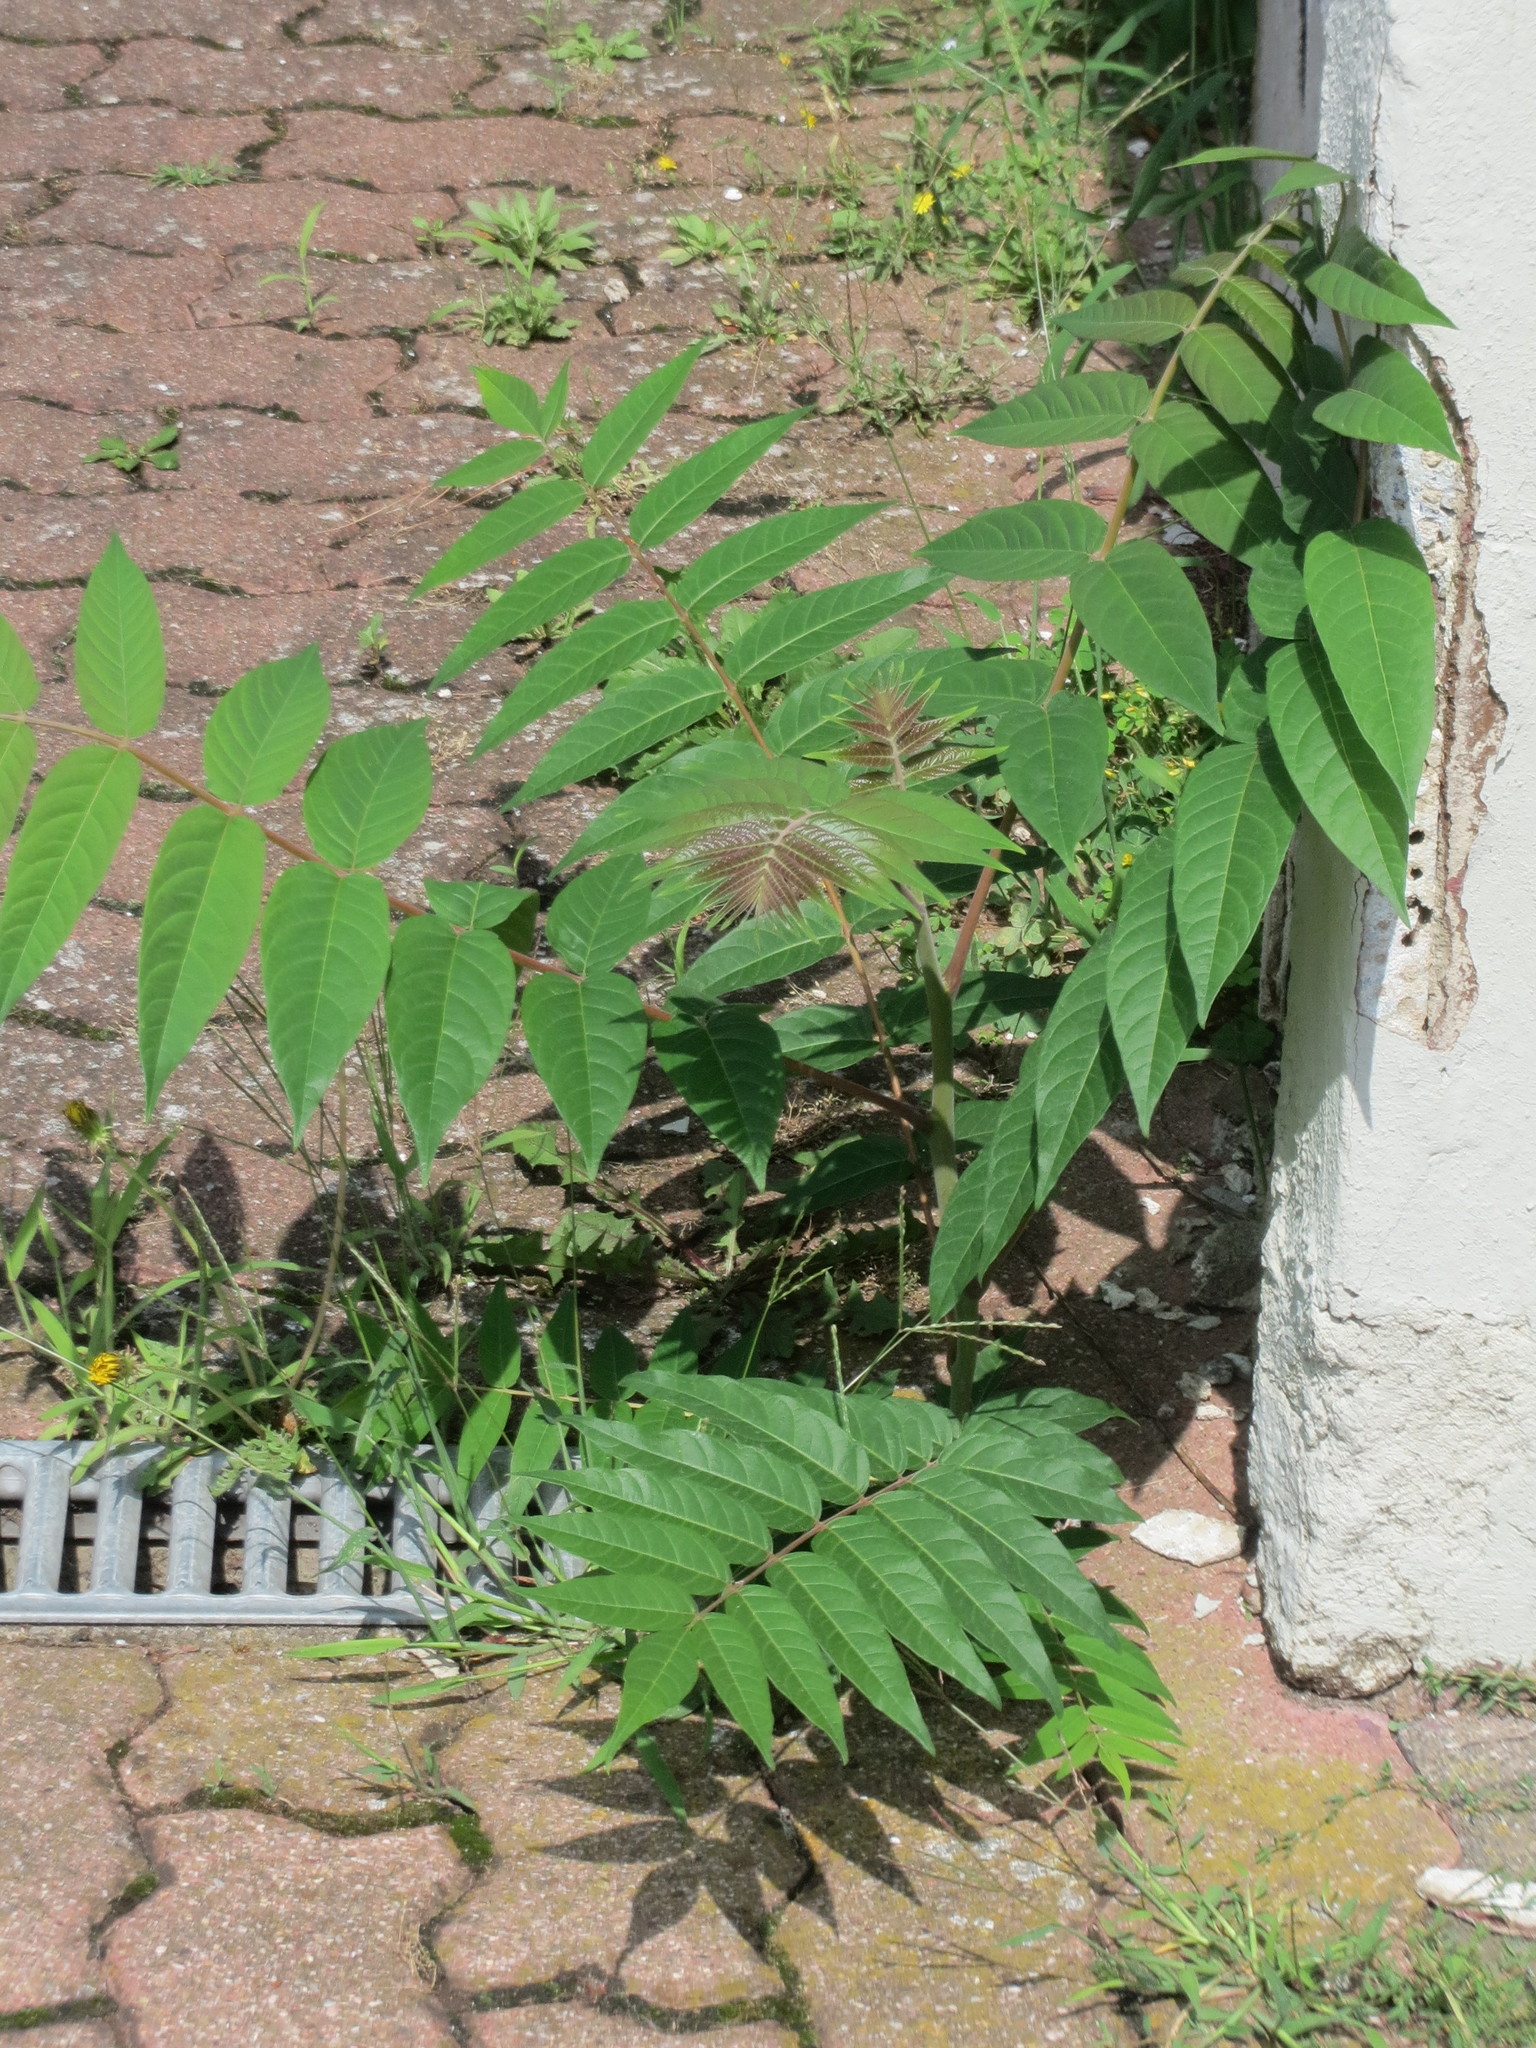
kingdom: Plantae
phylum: Tracheophyta
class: Magnoliopsida
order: Sapindales
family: Simaroubaceae
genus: Ailanthus
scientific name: Ailanthus altissima
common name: Tree-of-heaven
